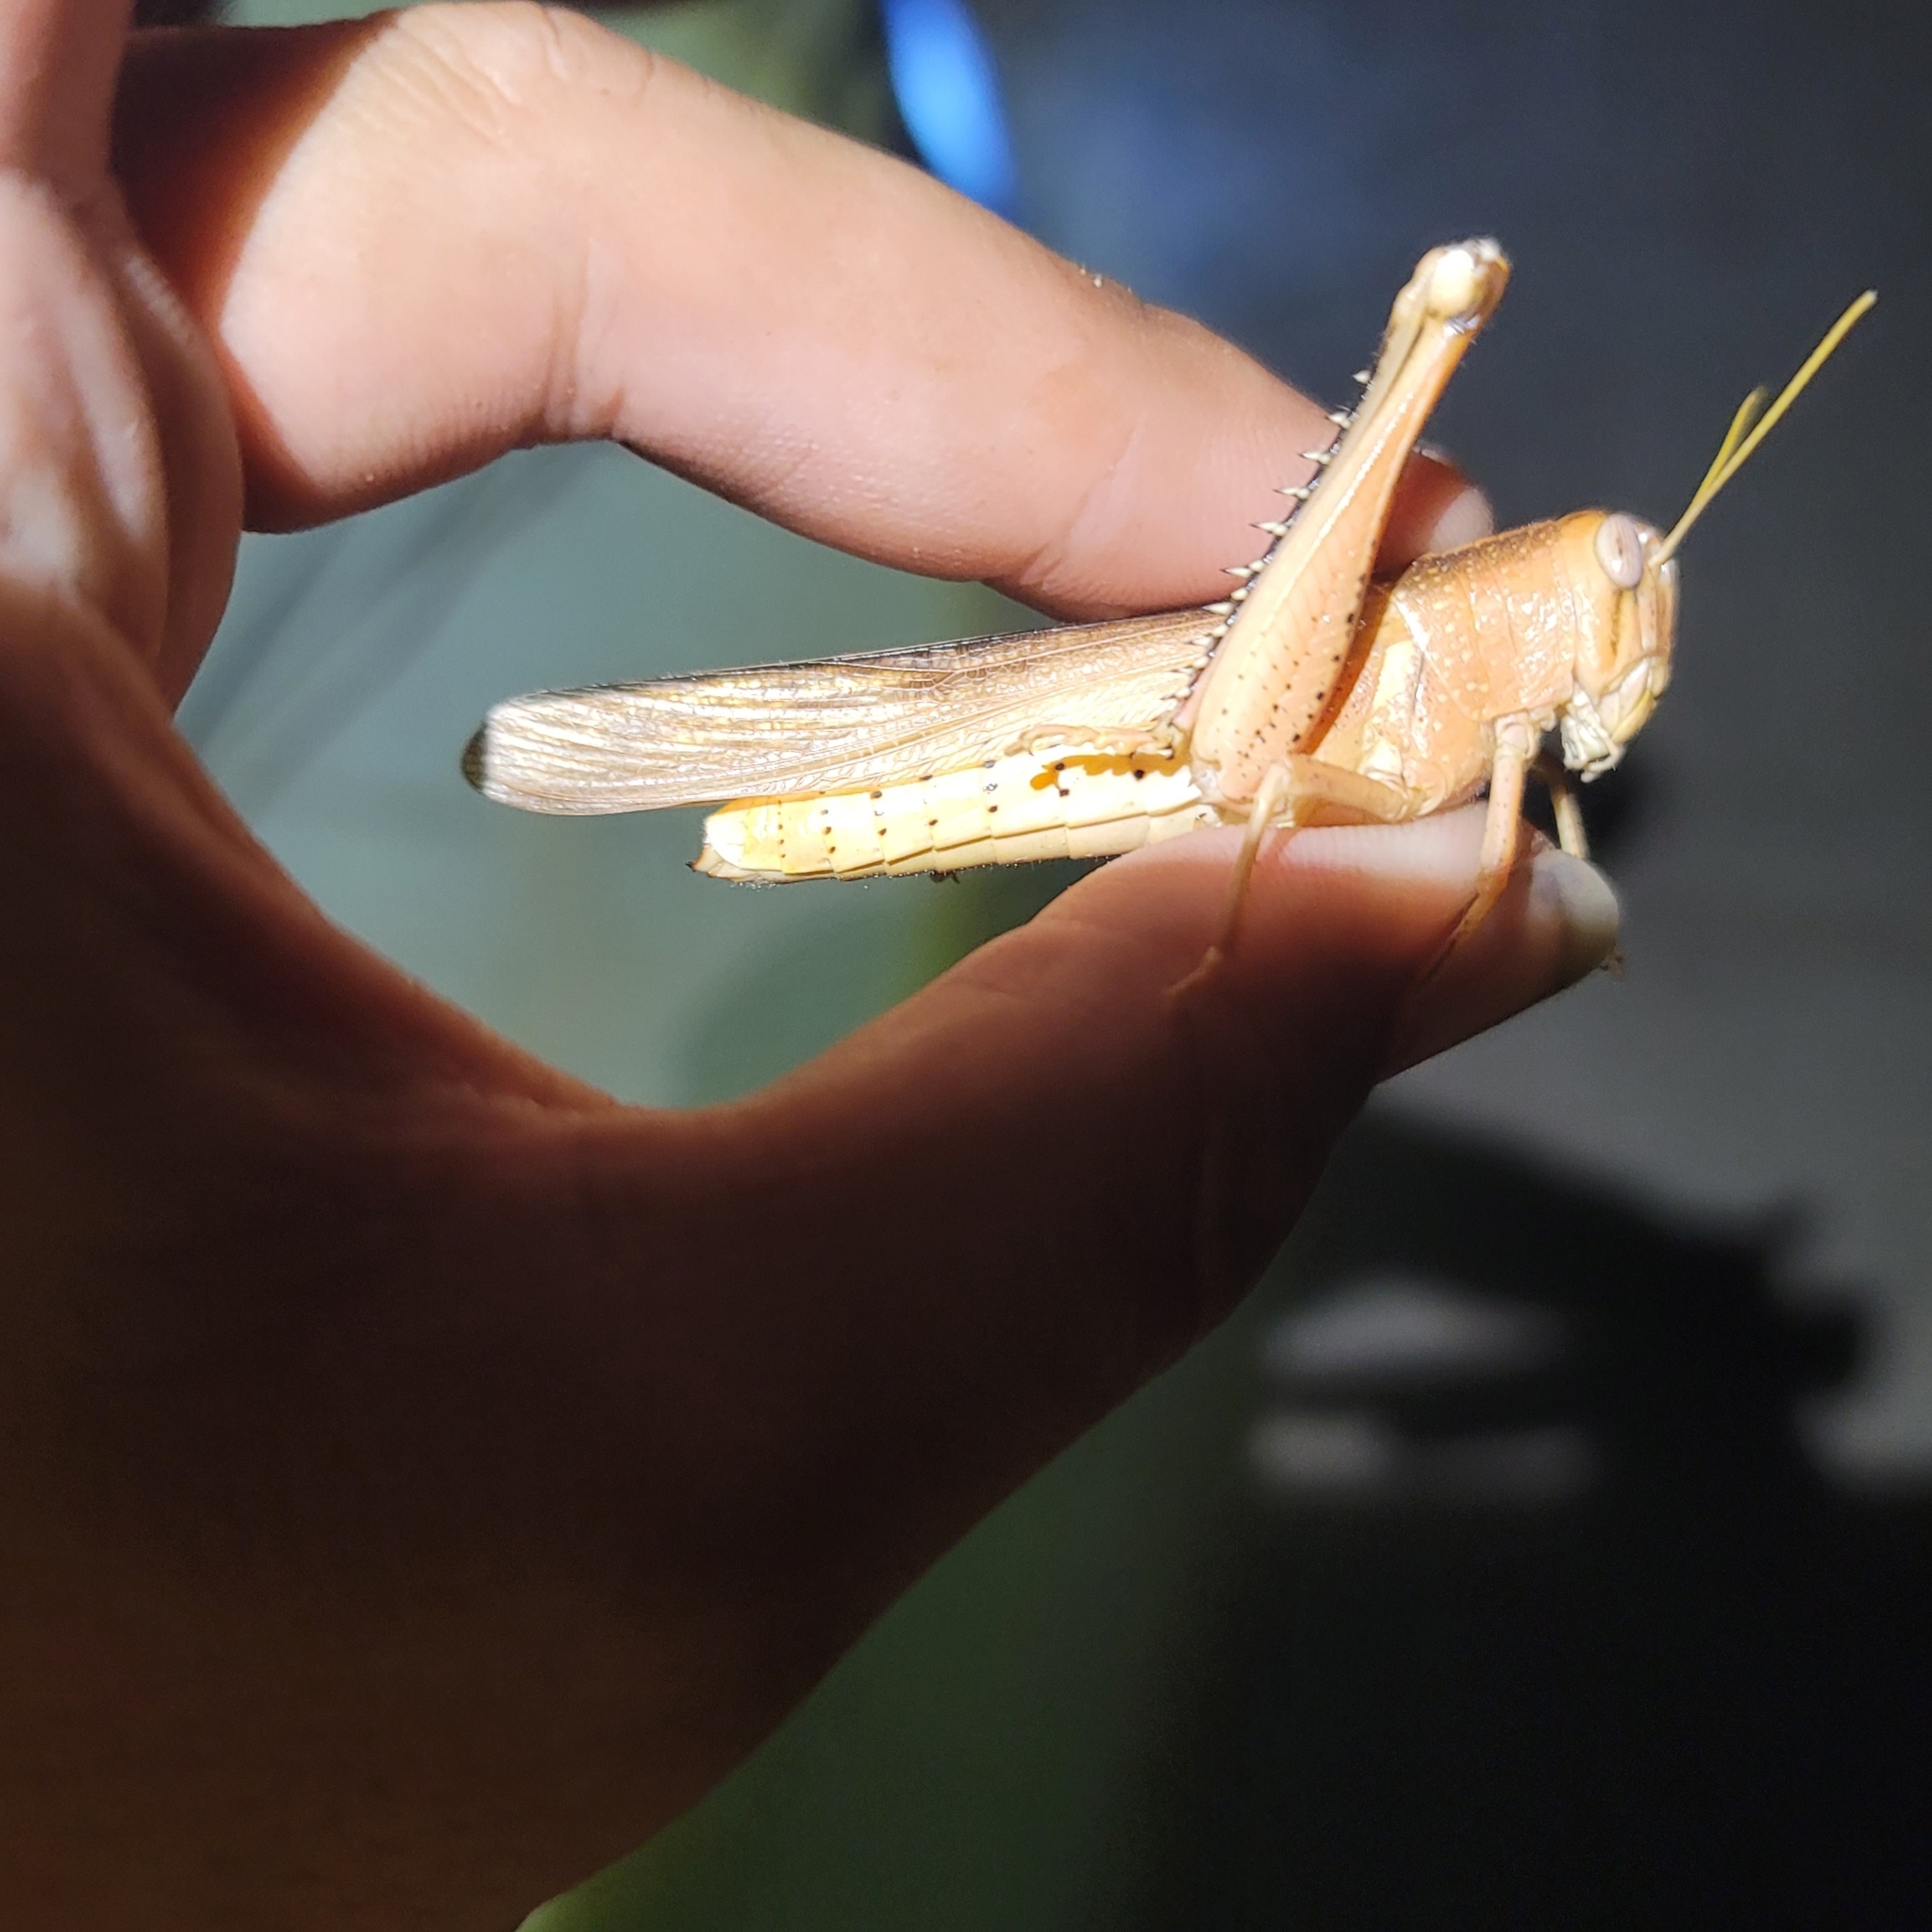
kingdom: Animalia
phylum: Arthropoda
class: Insecta
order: Orthoptera
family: Acrididae
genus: Schistocerca
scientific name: Schistocerca lineata
